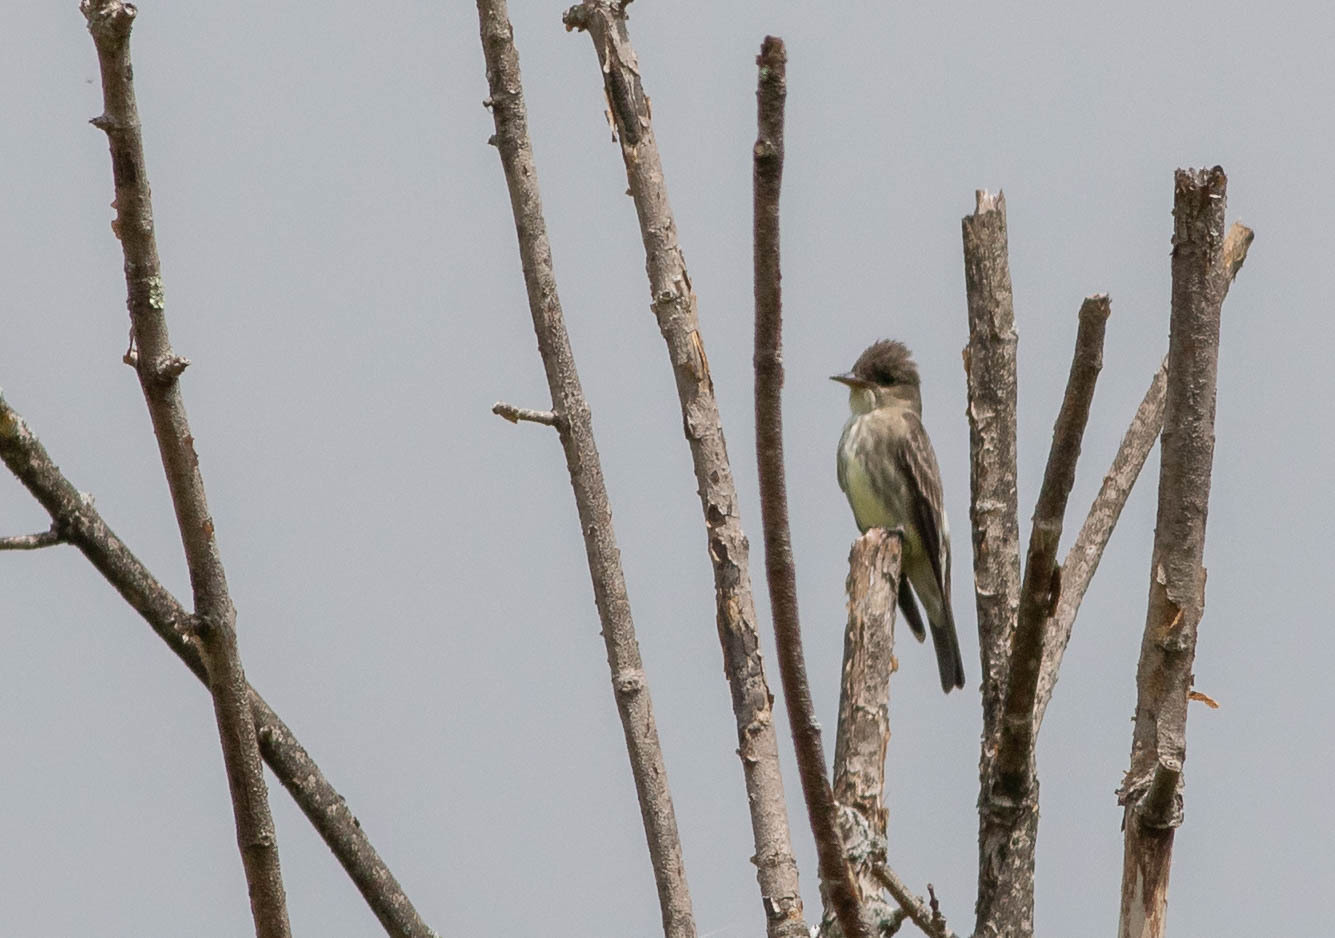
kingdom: Animalia
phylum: Chordata
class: Aves
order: Passeriformes
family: Tyrannidae
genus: Contopus
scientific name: Contopus cooperi
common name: Olive-sided flycatcher
